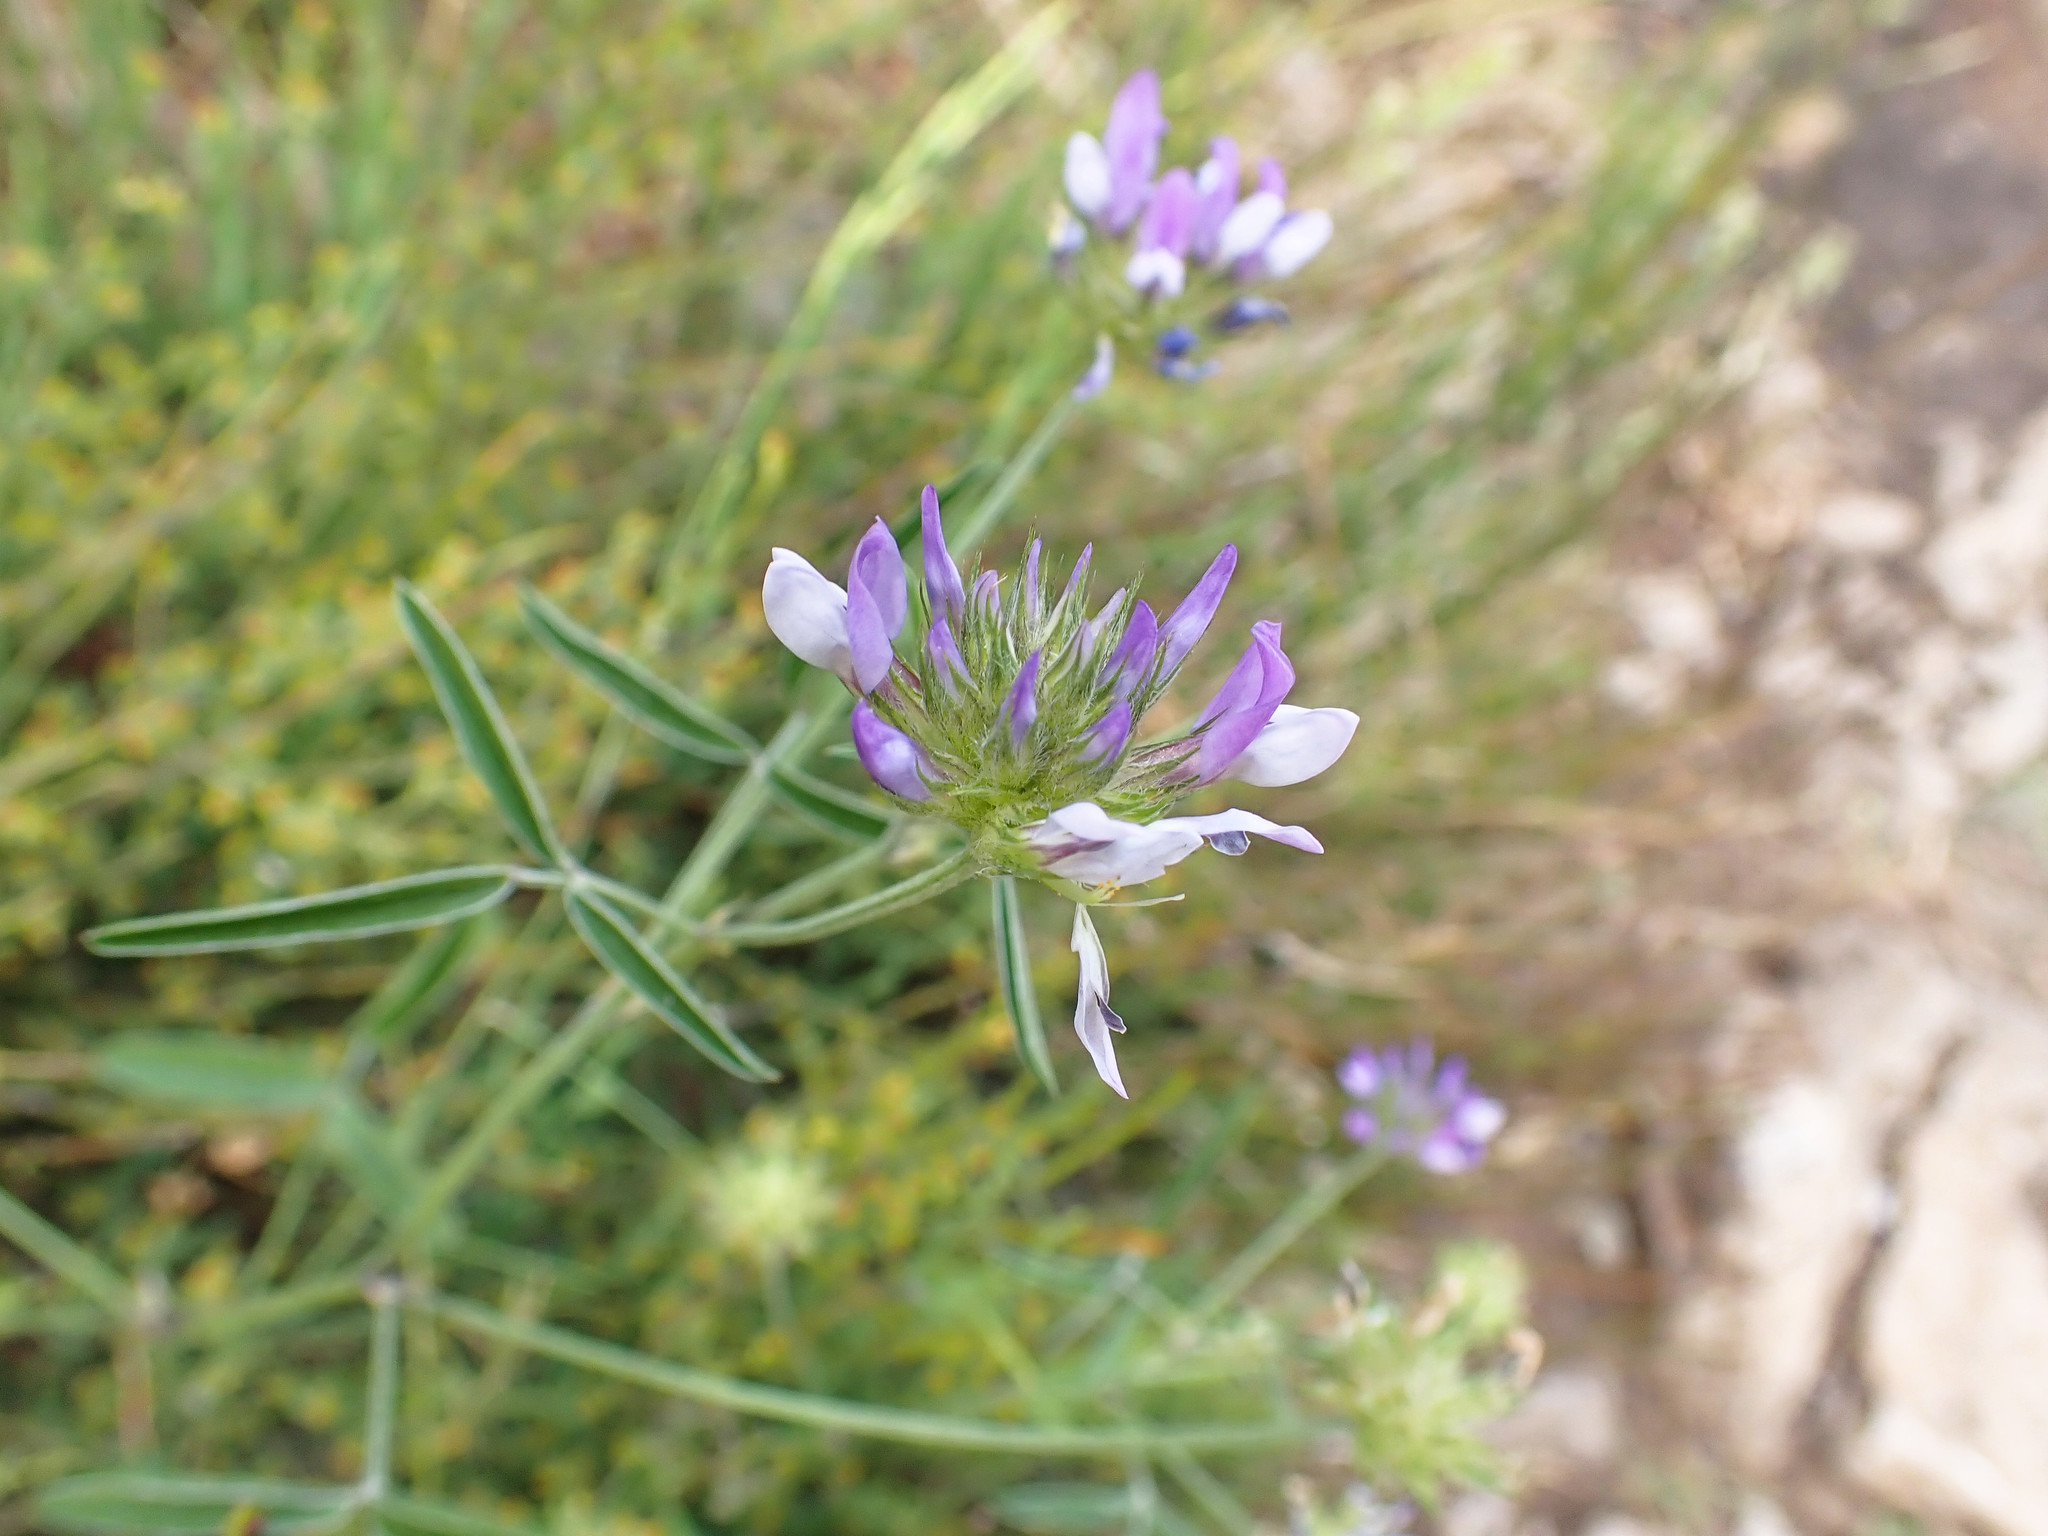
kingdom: Plantae
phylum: Tracheophyta
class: Magnoliopsida
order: Fabales
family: Fabaceae
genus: Bituminaria
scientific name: Bituminaria bituminosa
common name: Arabian pea
